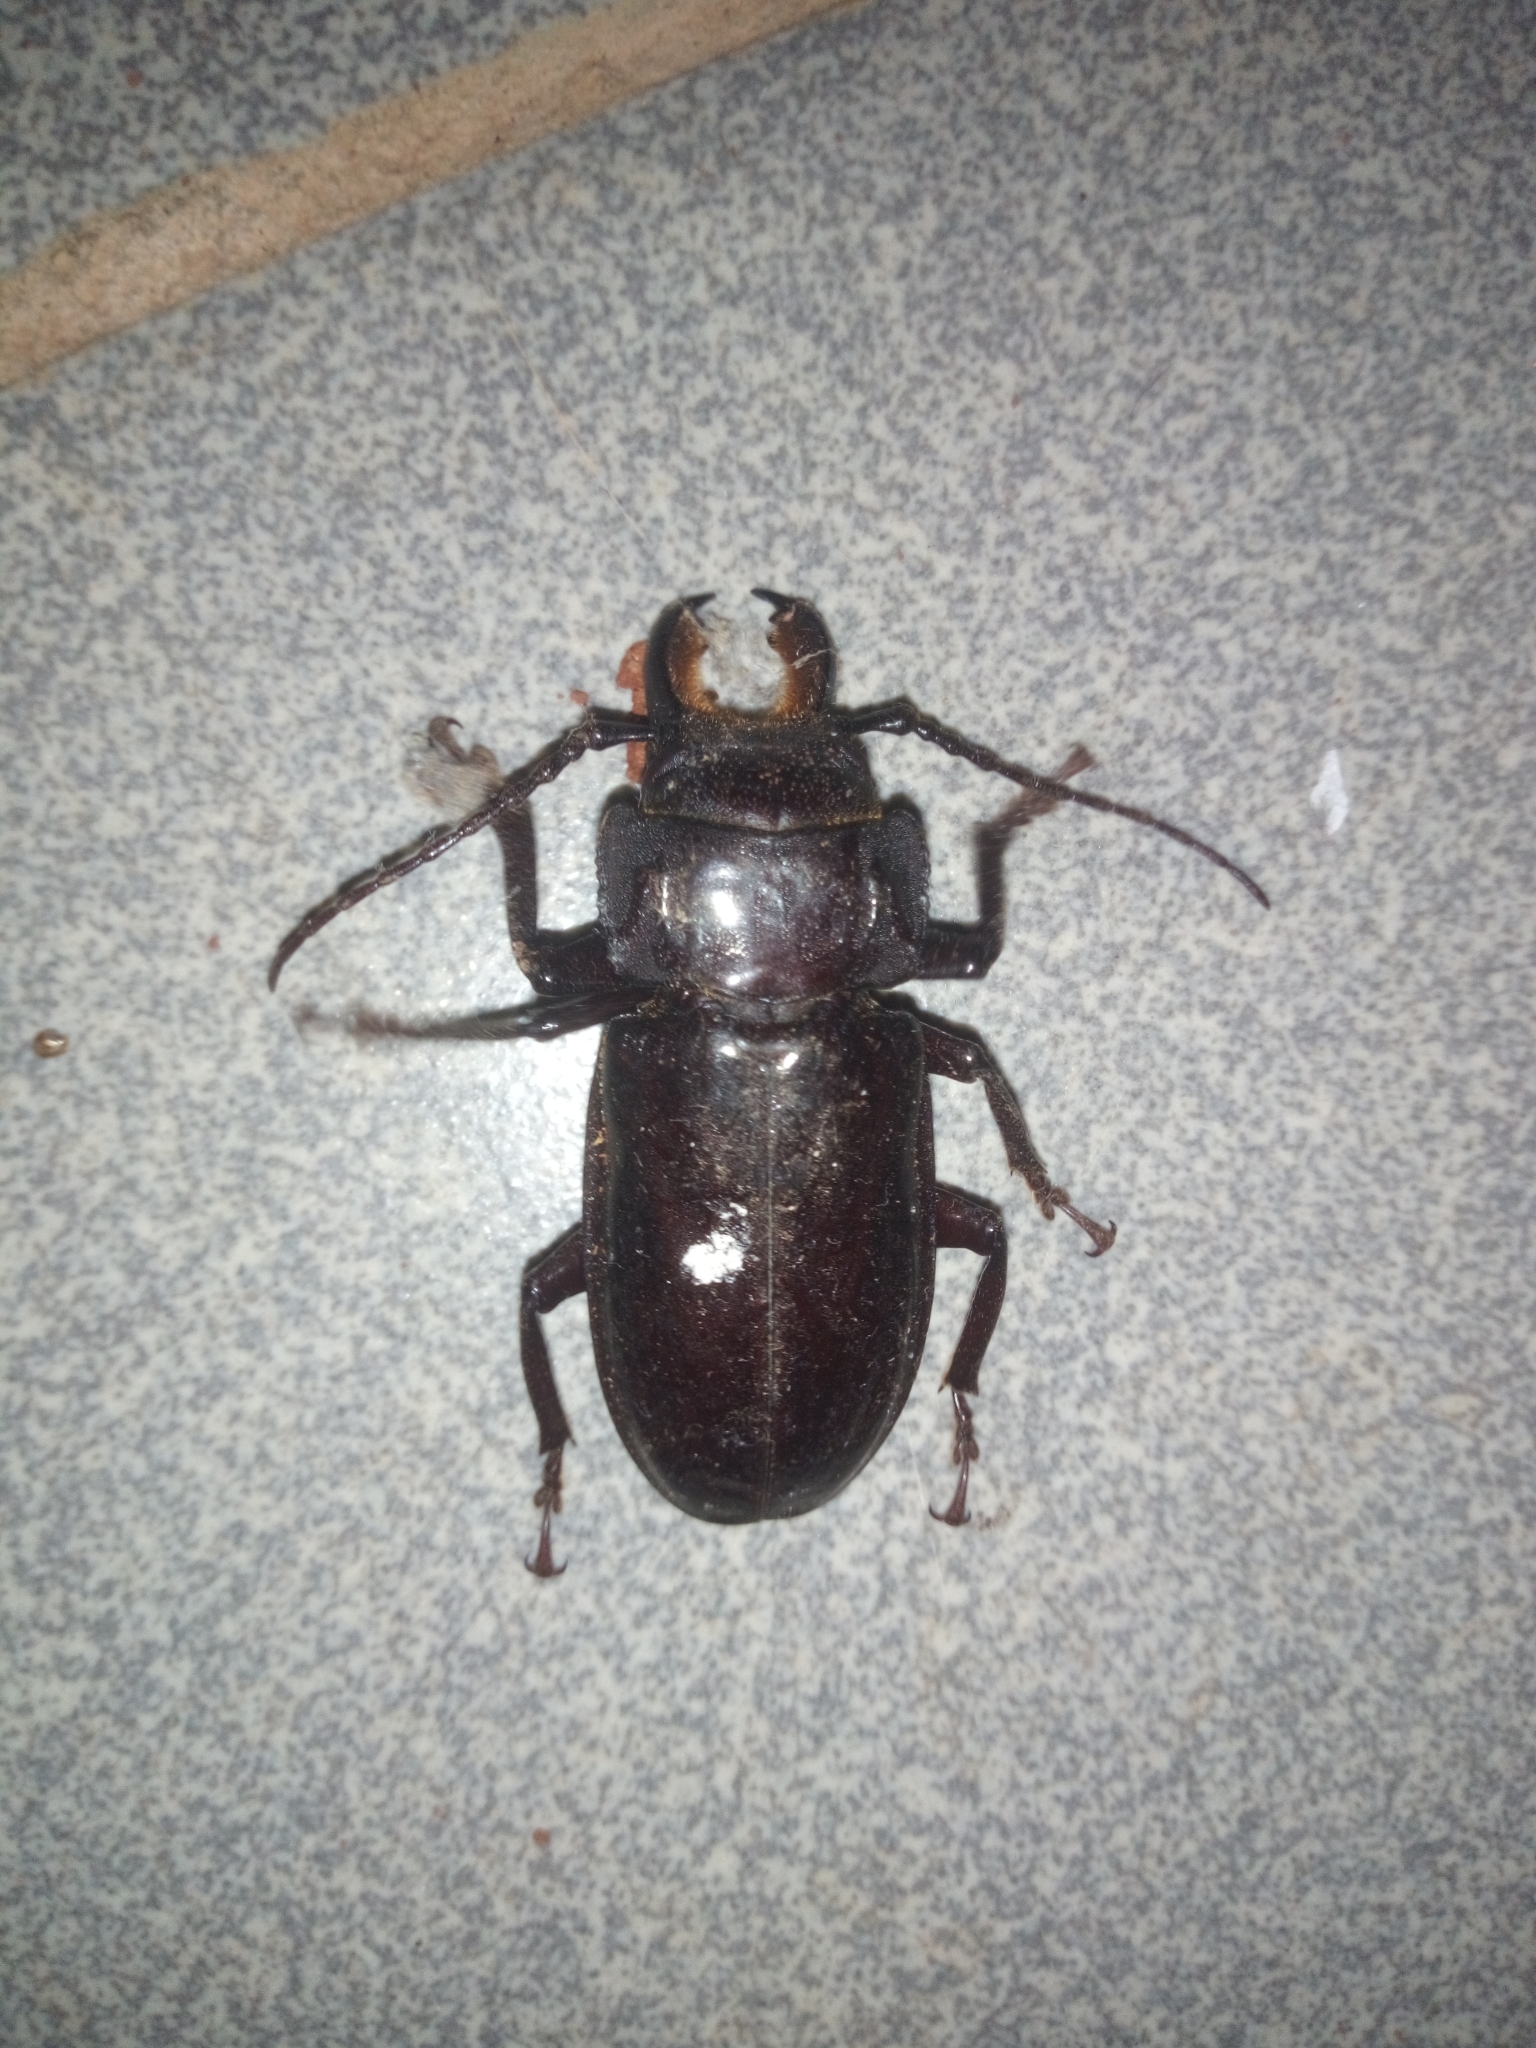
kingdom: Animalia
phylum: Arthropoda
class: Insecta
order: Coleoptera
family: Cerambycidae
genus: Mallodon
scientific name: Mallodon downesii
